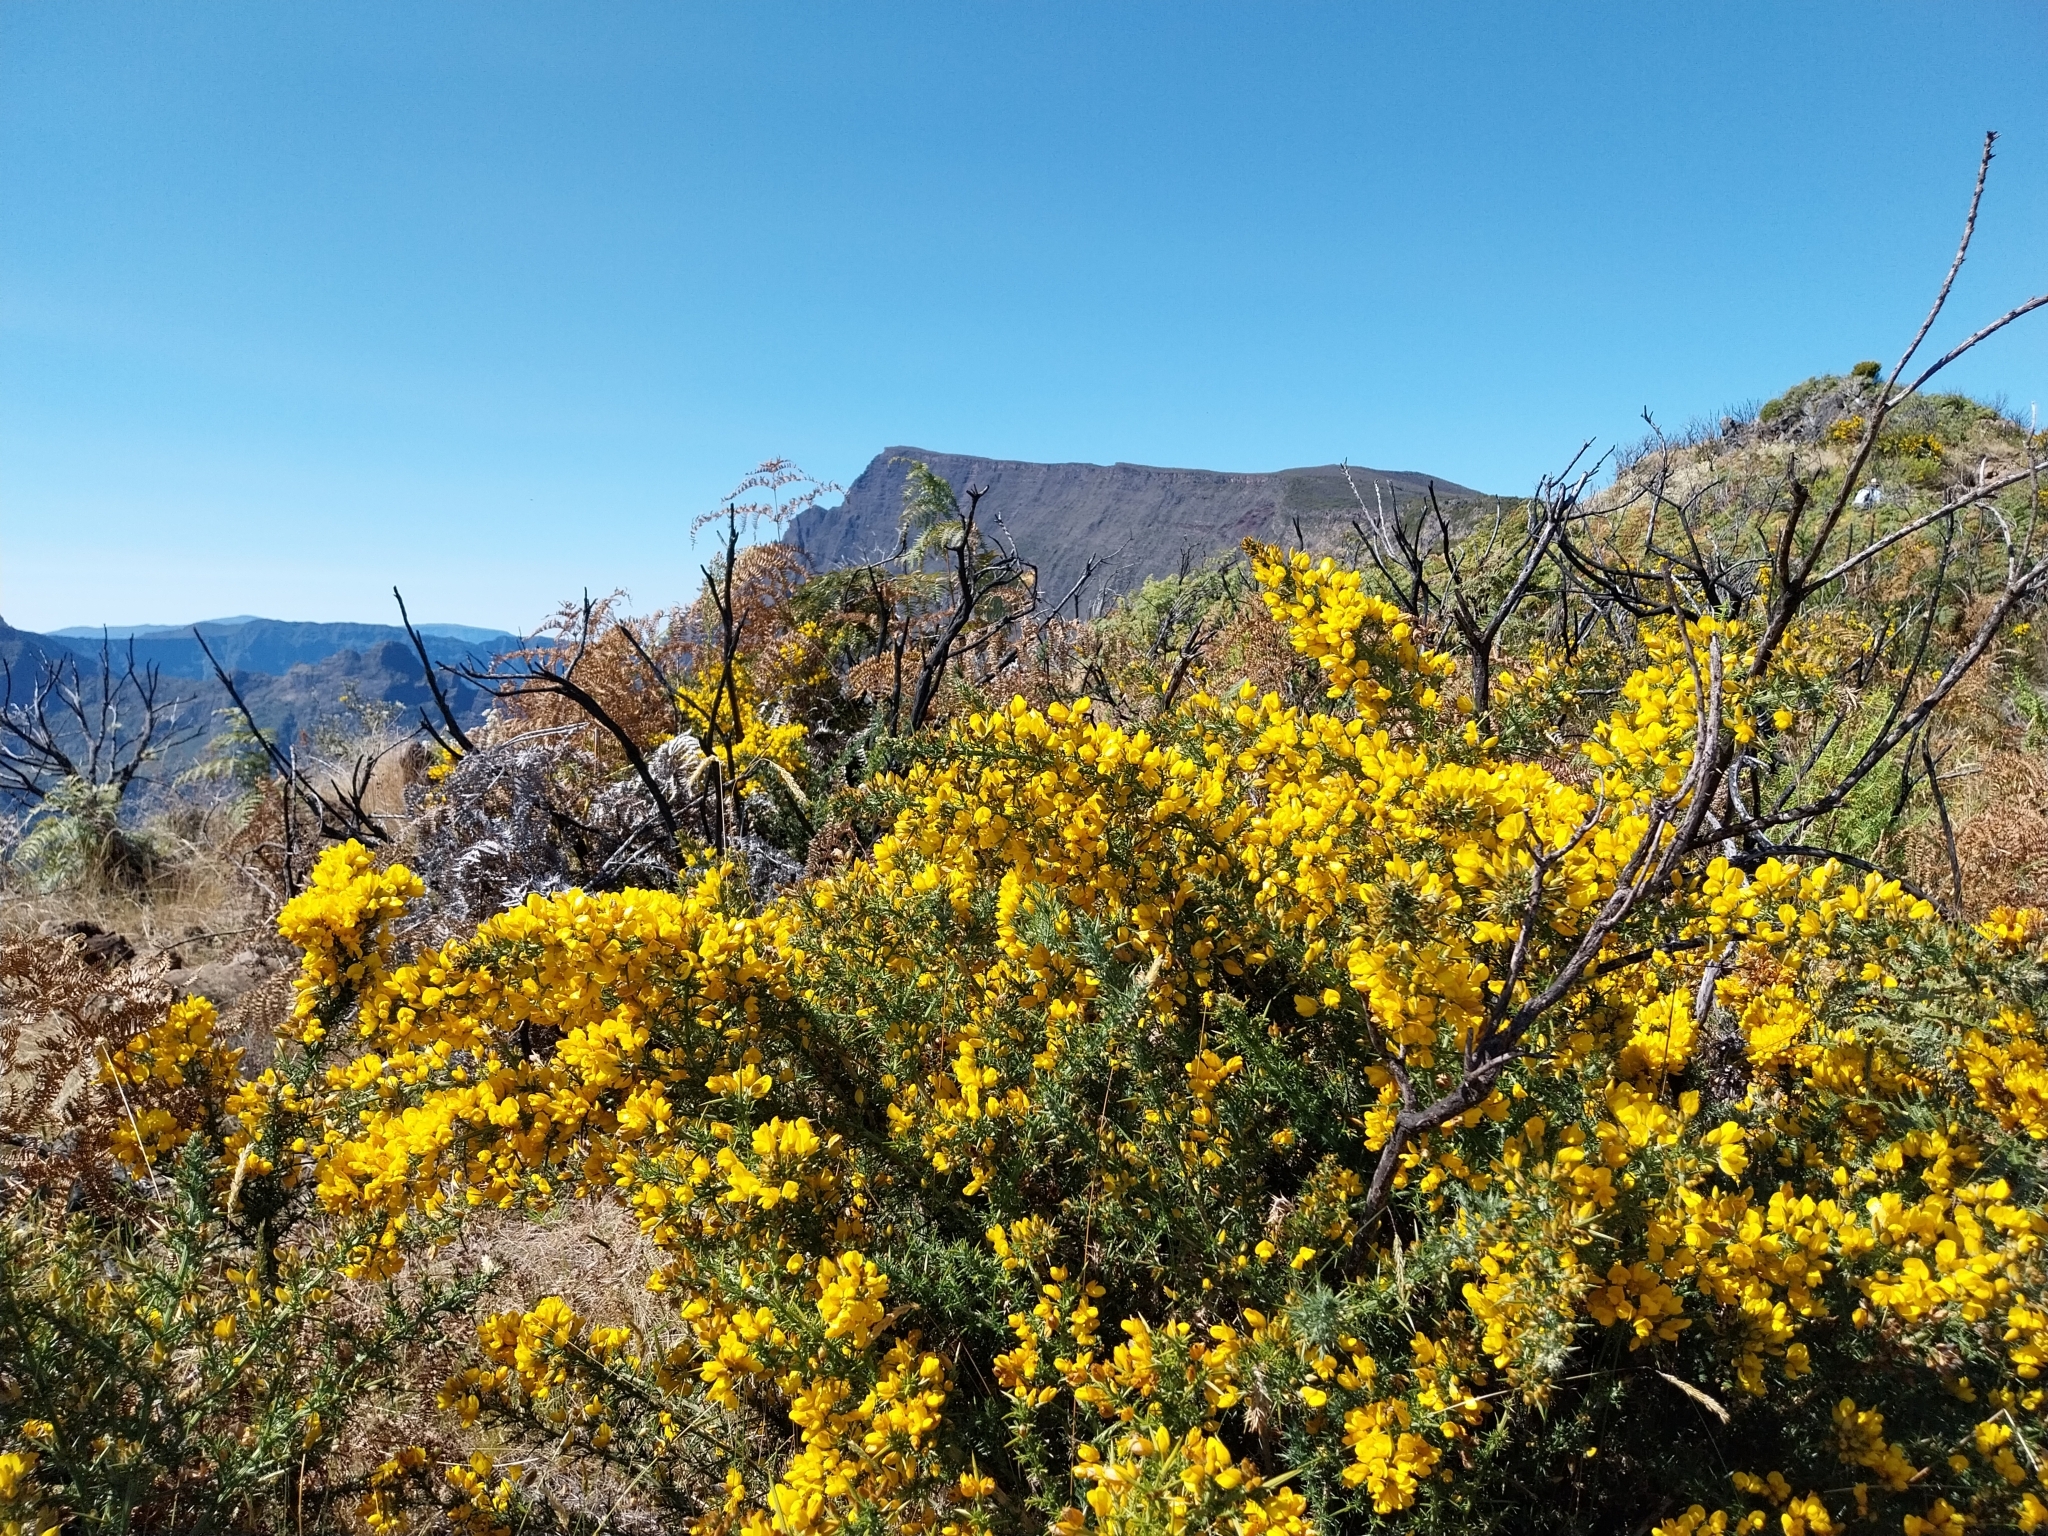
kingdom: Plantae
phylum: Tracheophyta
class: Magnoliopsida
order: Fabales
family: Fabaceae
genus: Ulex
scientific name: Ulex europaeus
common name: Common gorse
